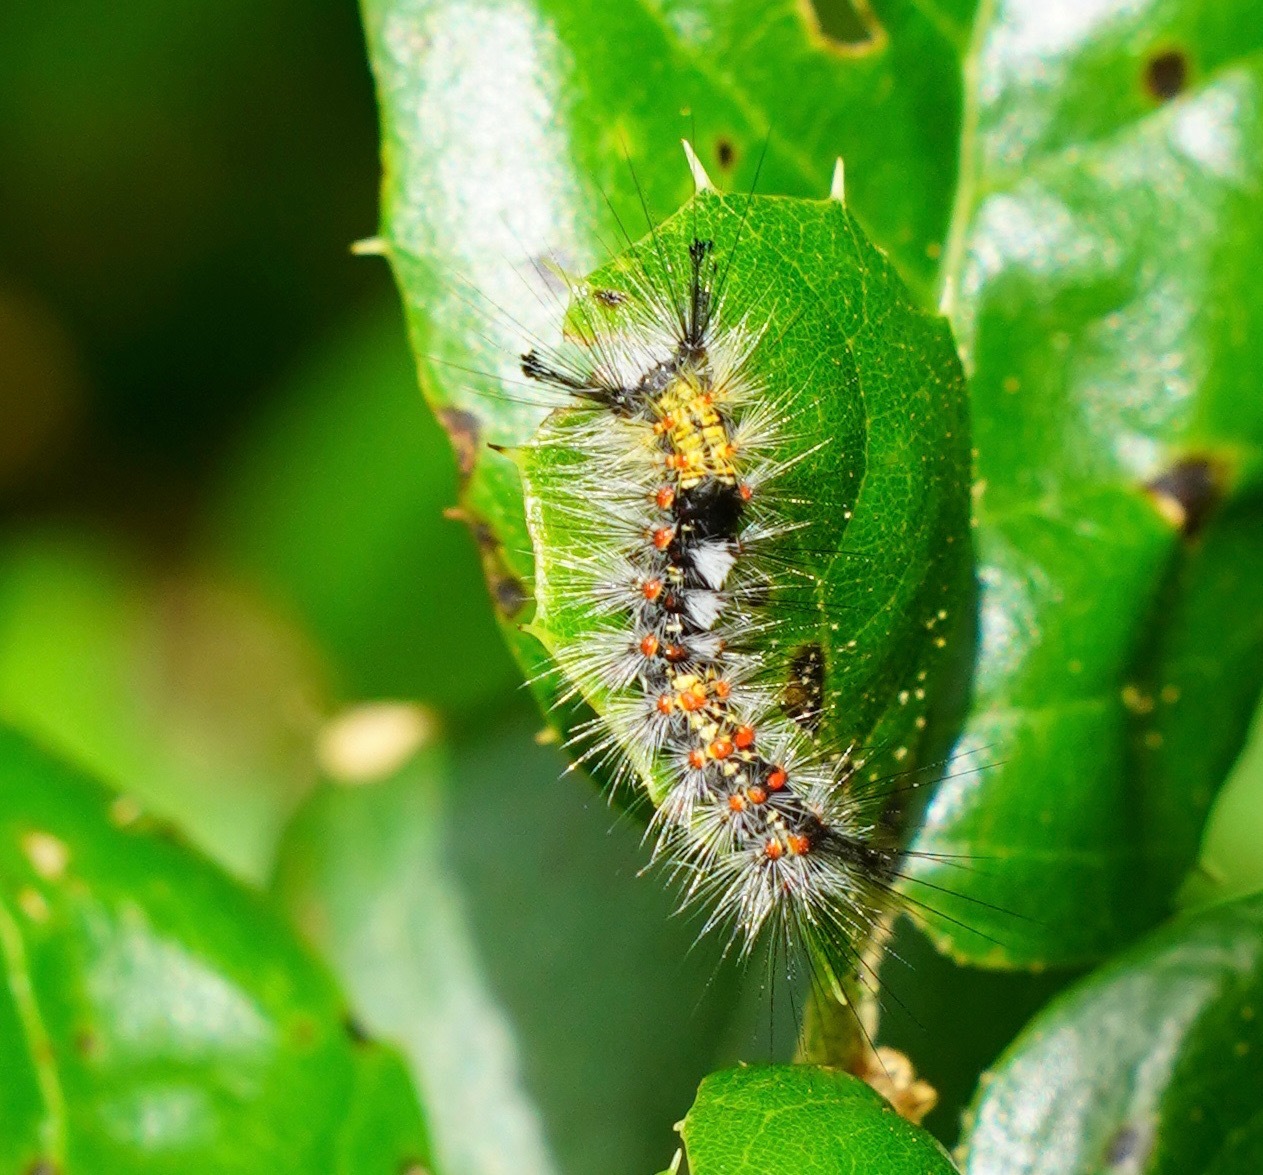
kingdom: Animalia
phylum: Arthropoda
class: Insecta
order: Lepidoptera
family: Erebidae
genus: Orgyia
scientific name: Orgyia vetusta
